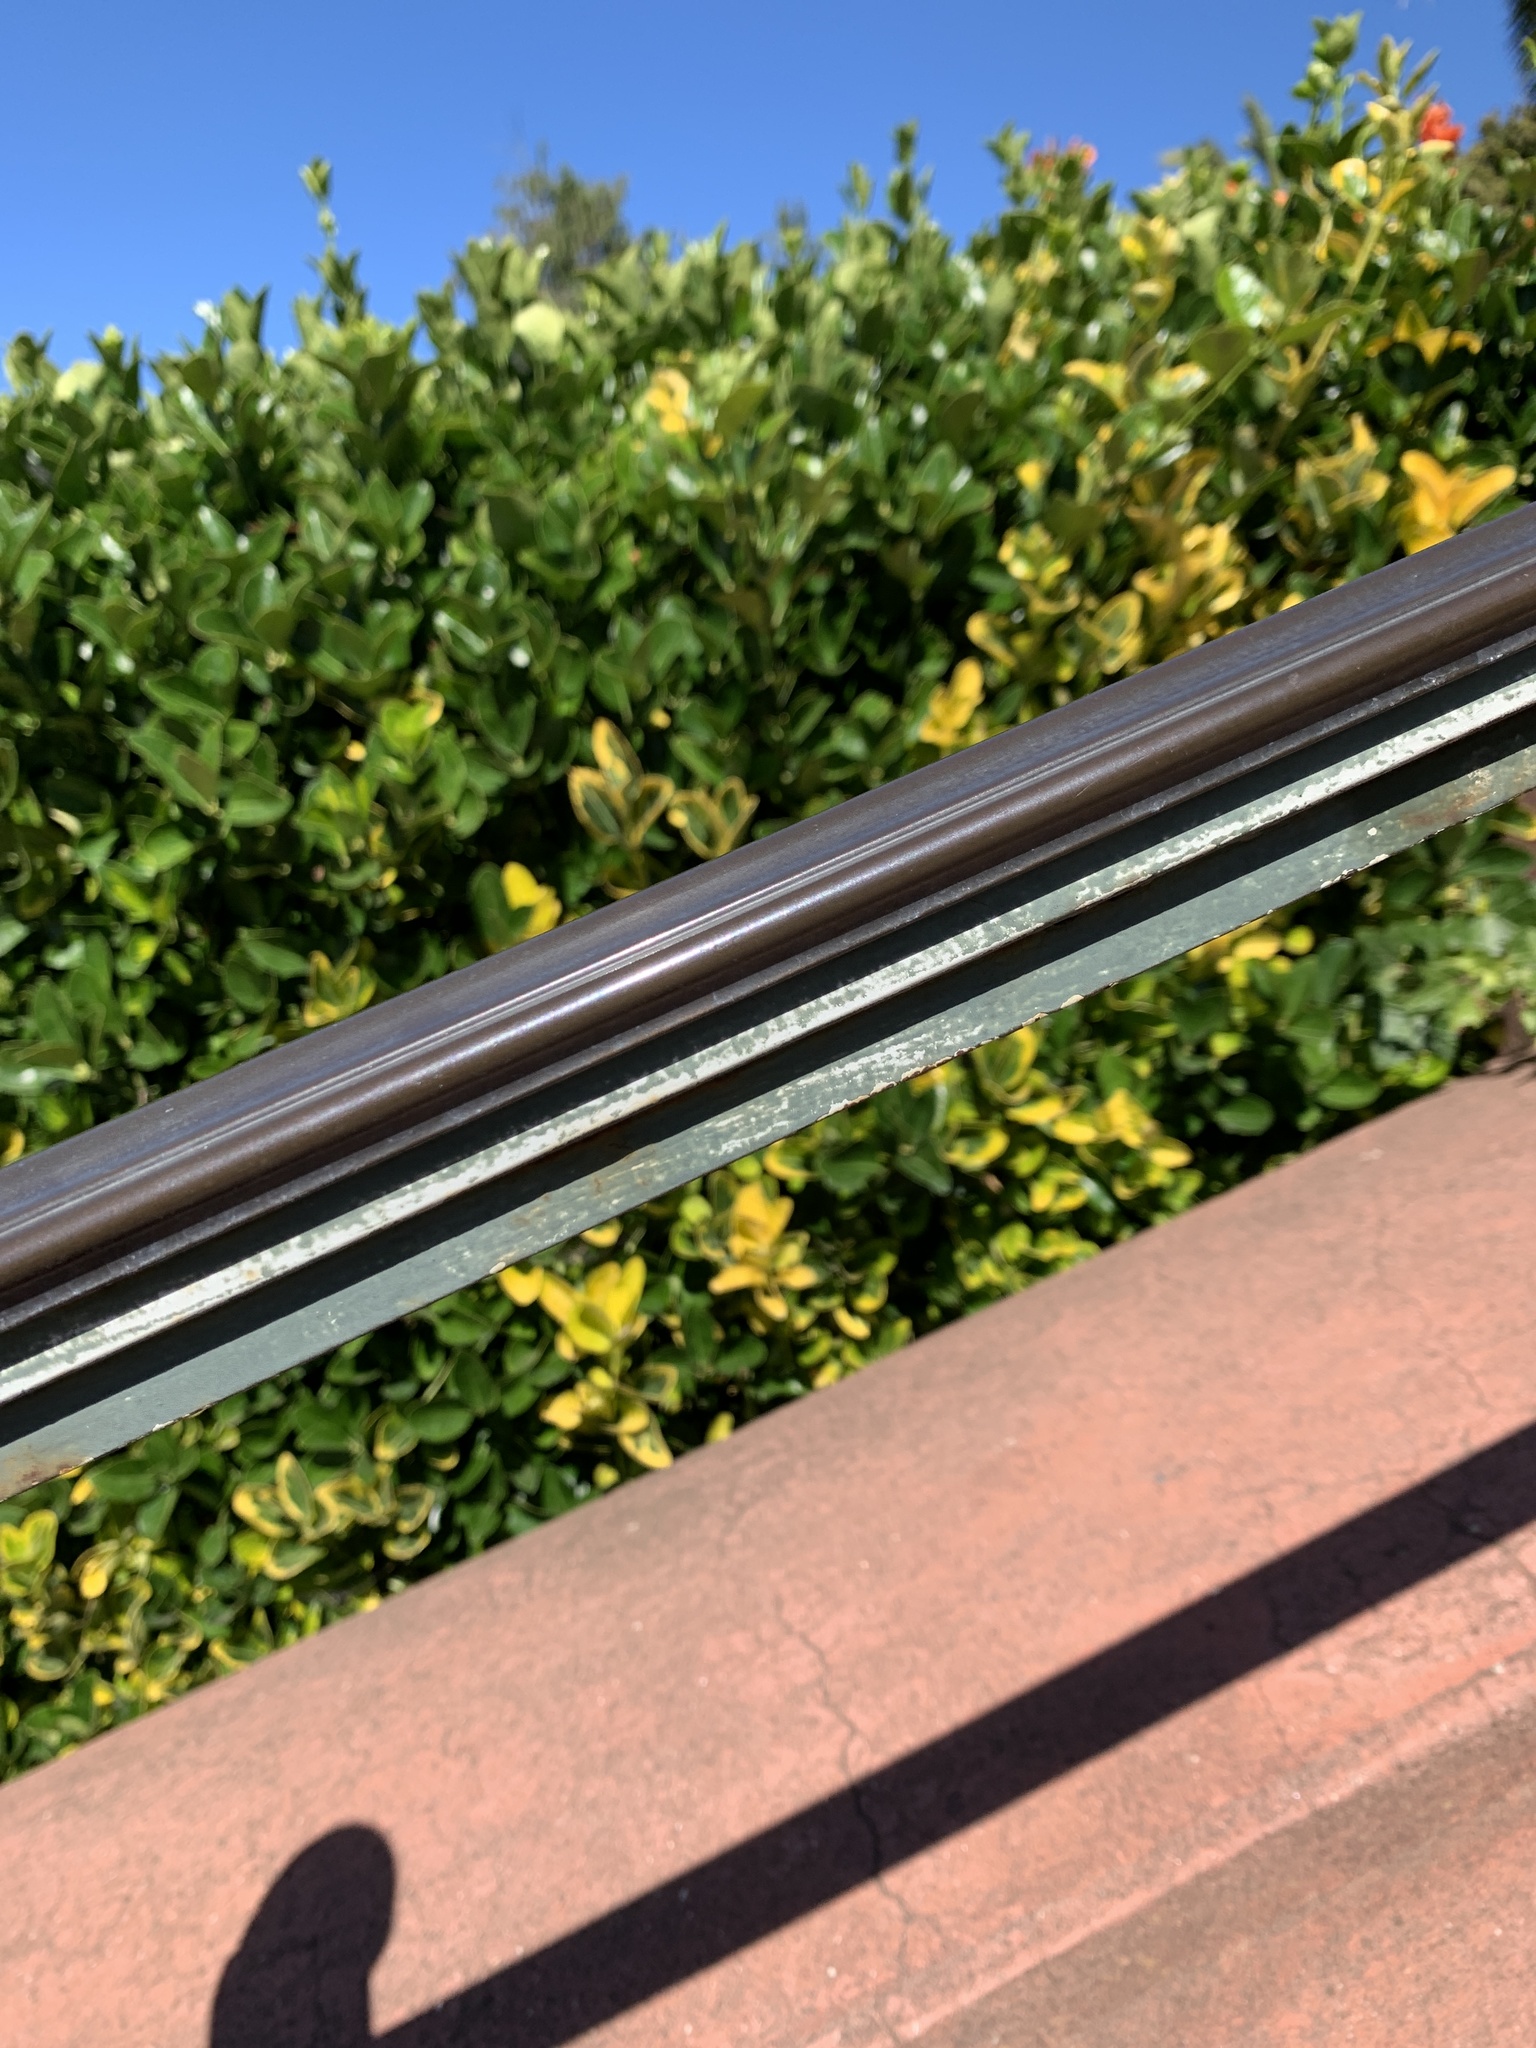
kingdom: Plantae
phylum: Tracheophyta
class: Magnoliopsida
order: Malpighiales
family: Hypericaceae
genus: Hypericum
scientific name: Hypericum calycinum
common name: Rose-of-sharon
